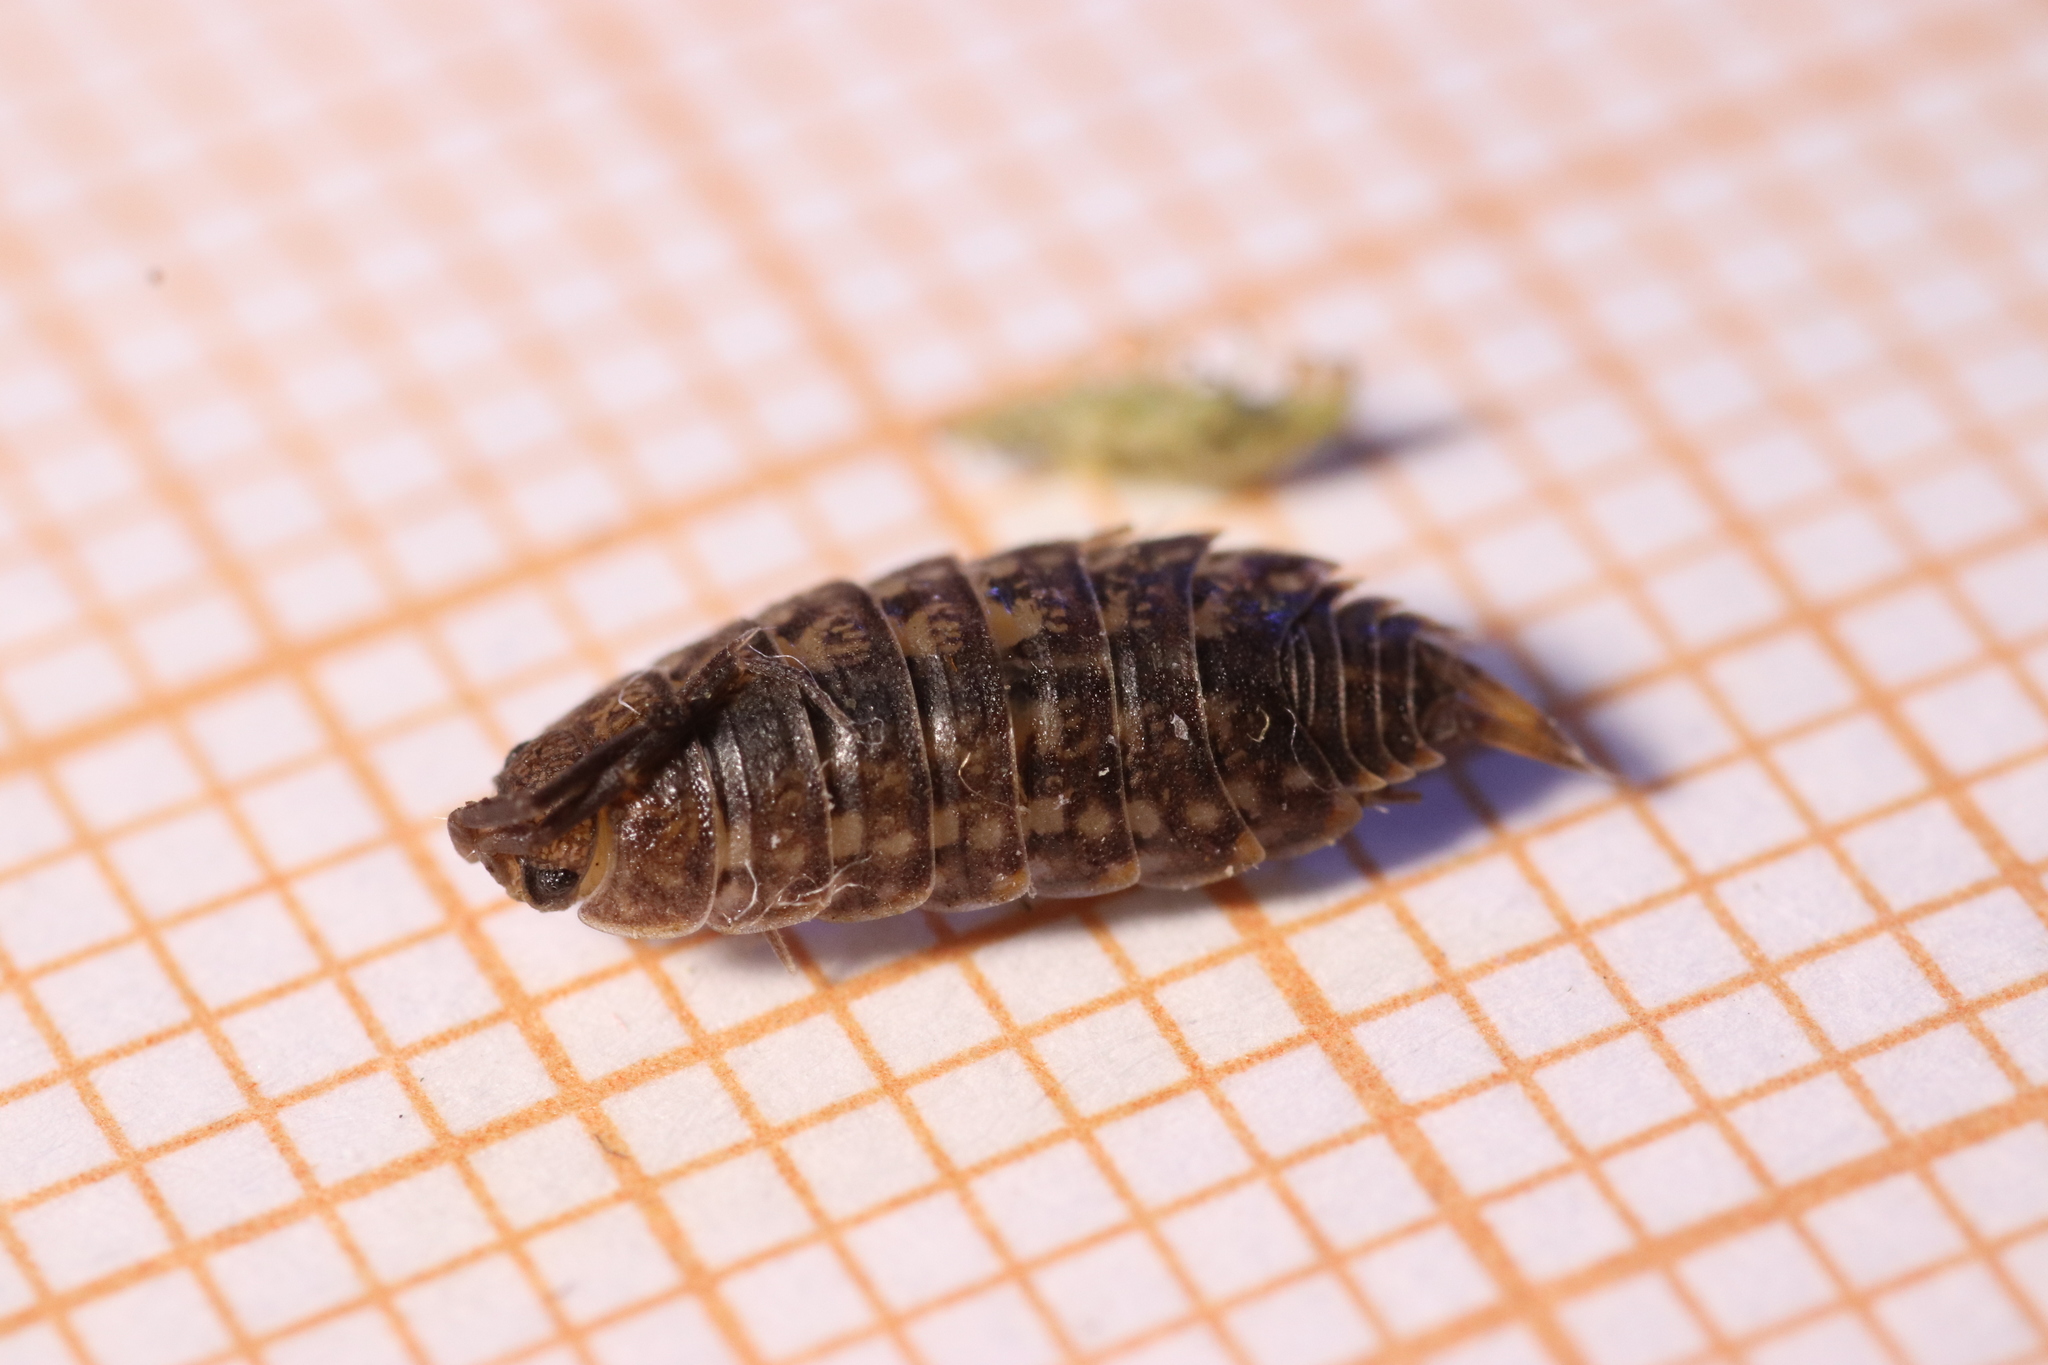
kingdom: Animalia
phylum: Arthropoda
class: Malacostraca
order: Isopoda
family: Agnaridae
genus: Orthometopon
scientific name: Orthometopon planum
